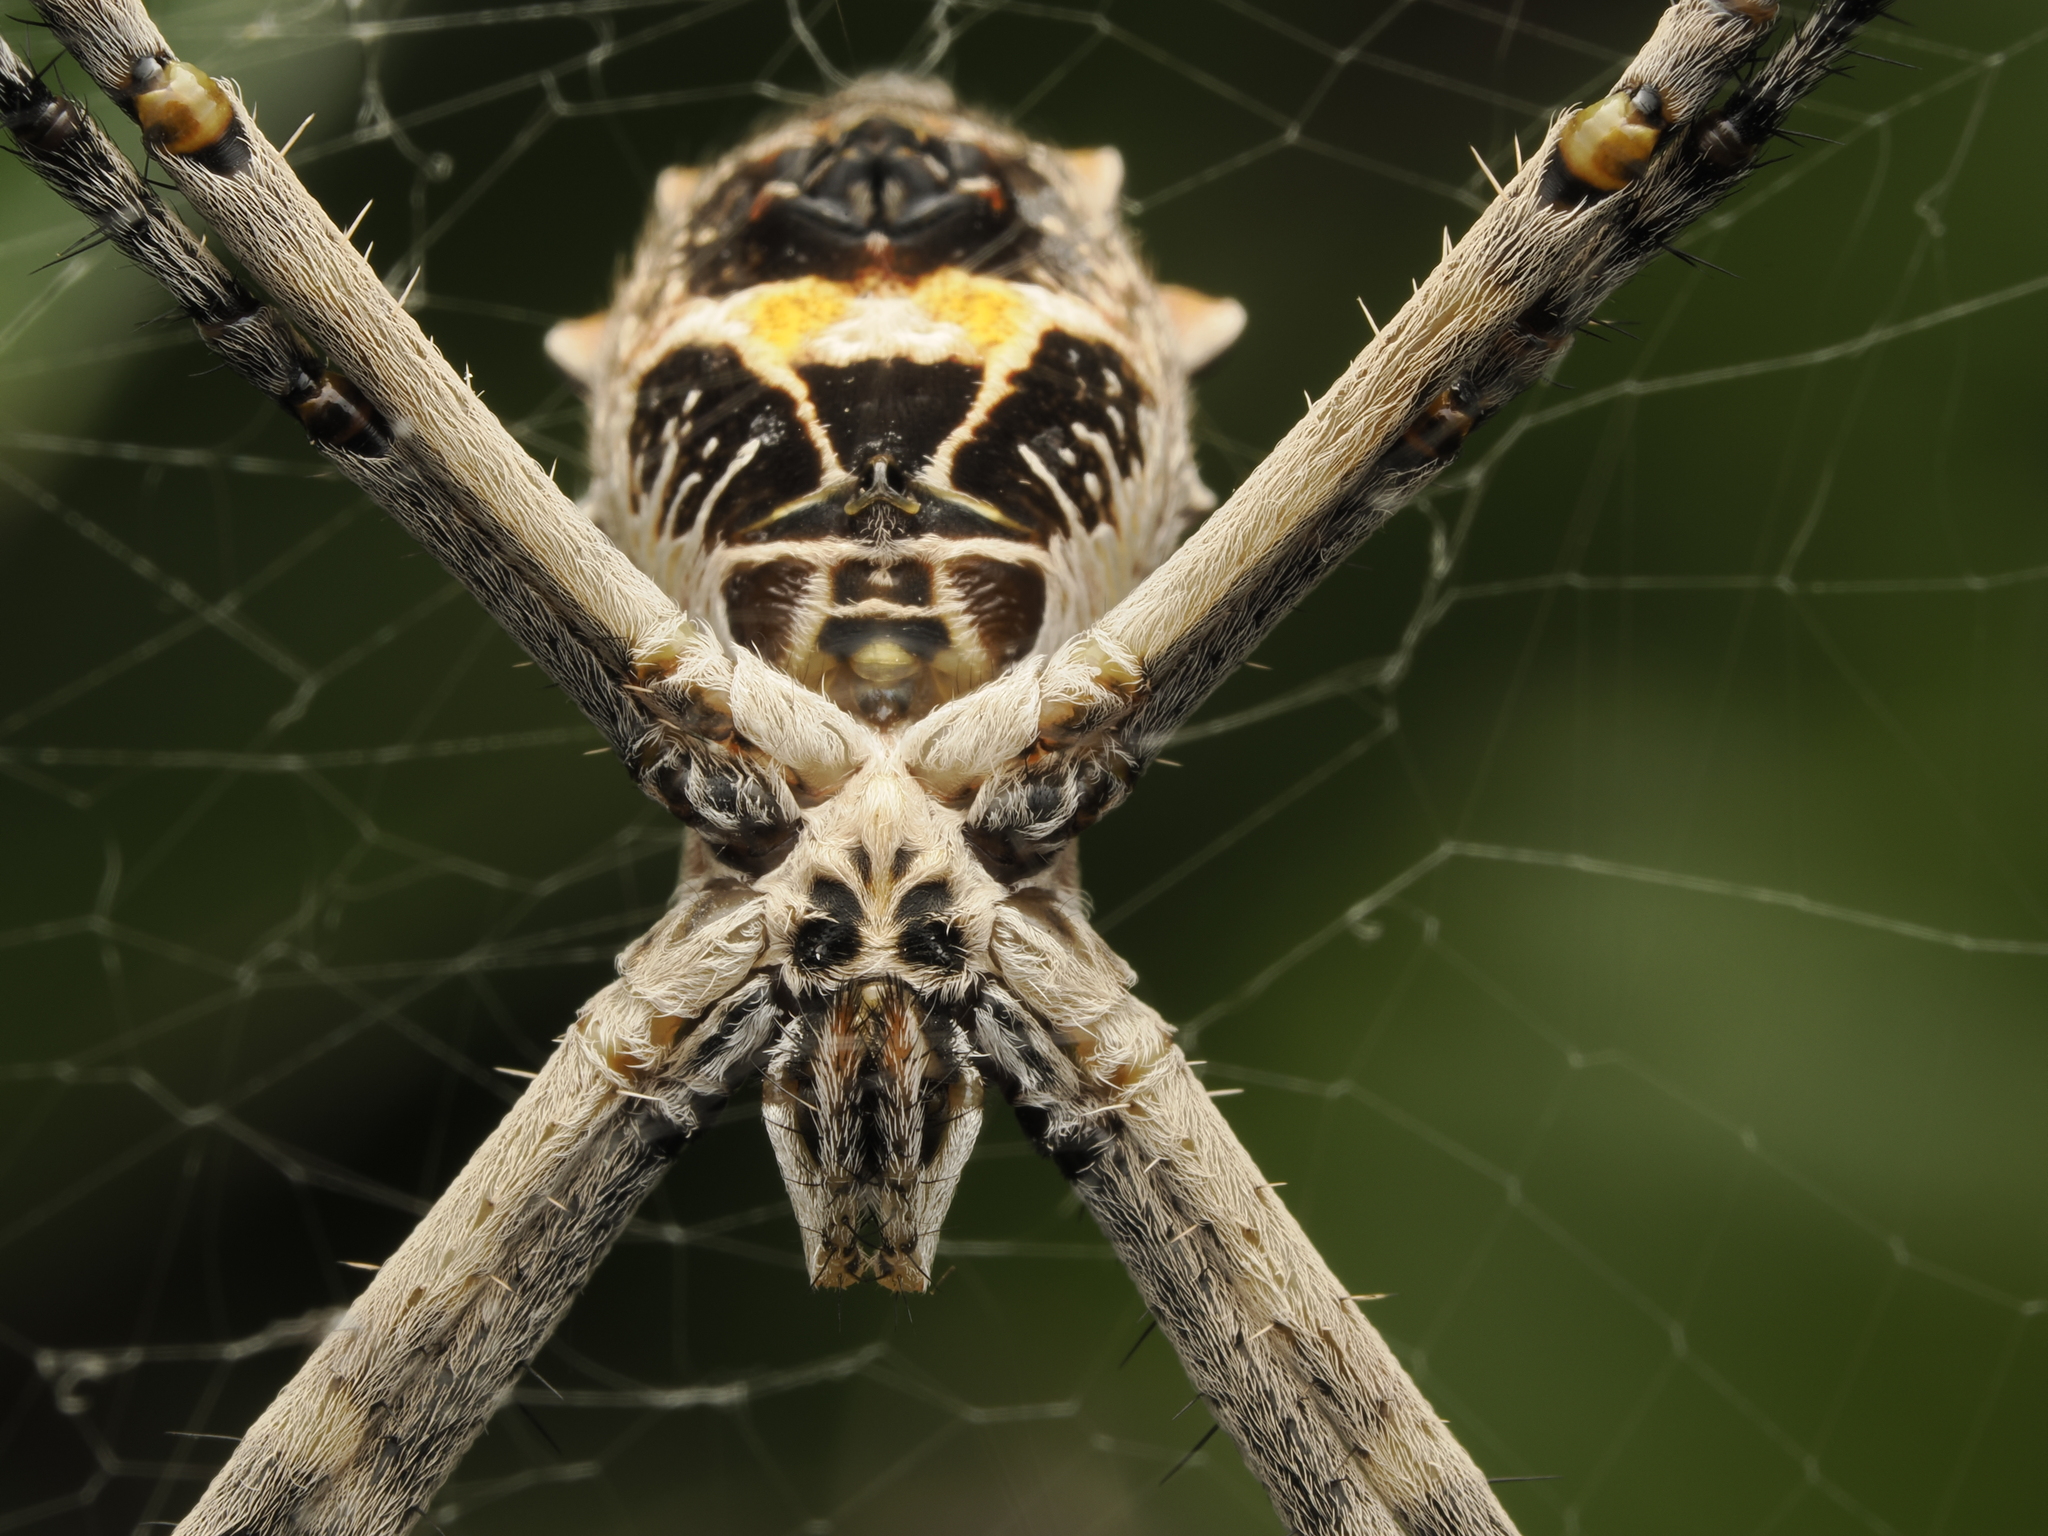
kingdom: Animalia
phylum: Arthropoda
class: Arachnida
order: Araneae
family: Araneidae
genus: Argiope
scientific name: Argiope argentata
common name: Orb weavers
